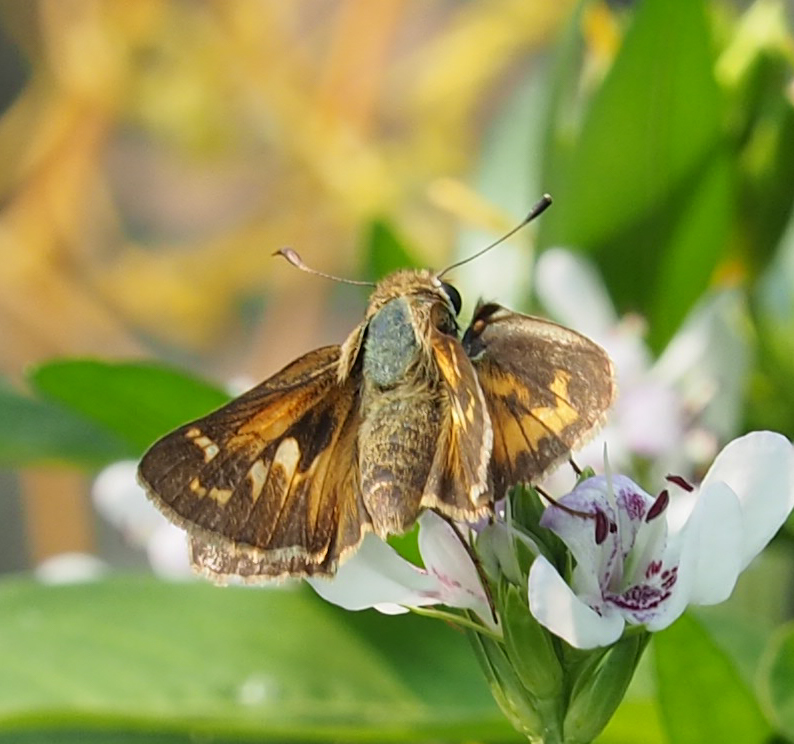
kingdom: Animalia
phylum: Arthropoda
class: Insecta
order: Lepidoptera
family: Hesperiidae
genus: Atalopedes
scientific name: Atalopedes
